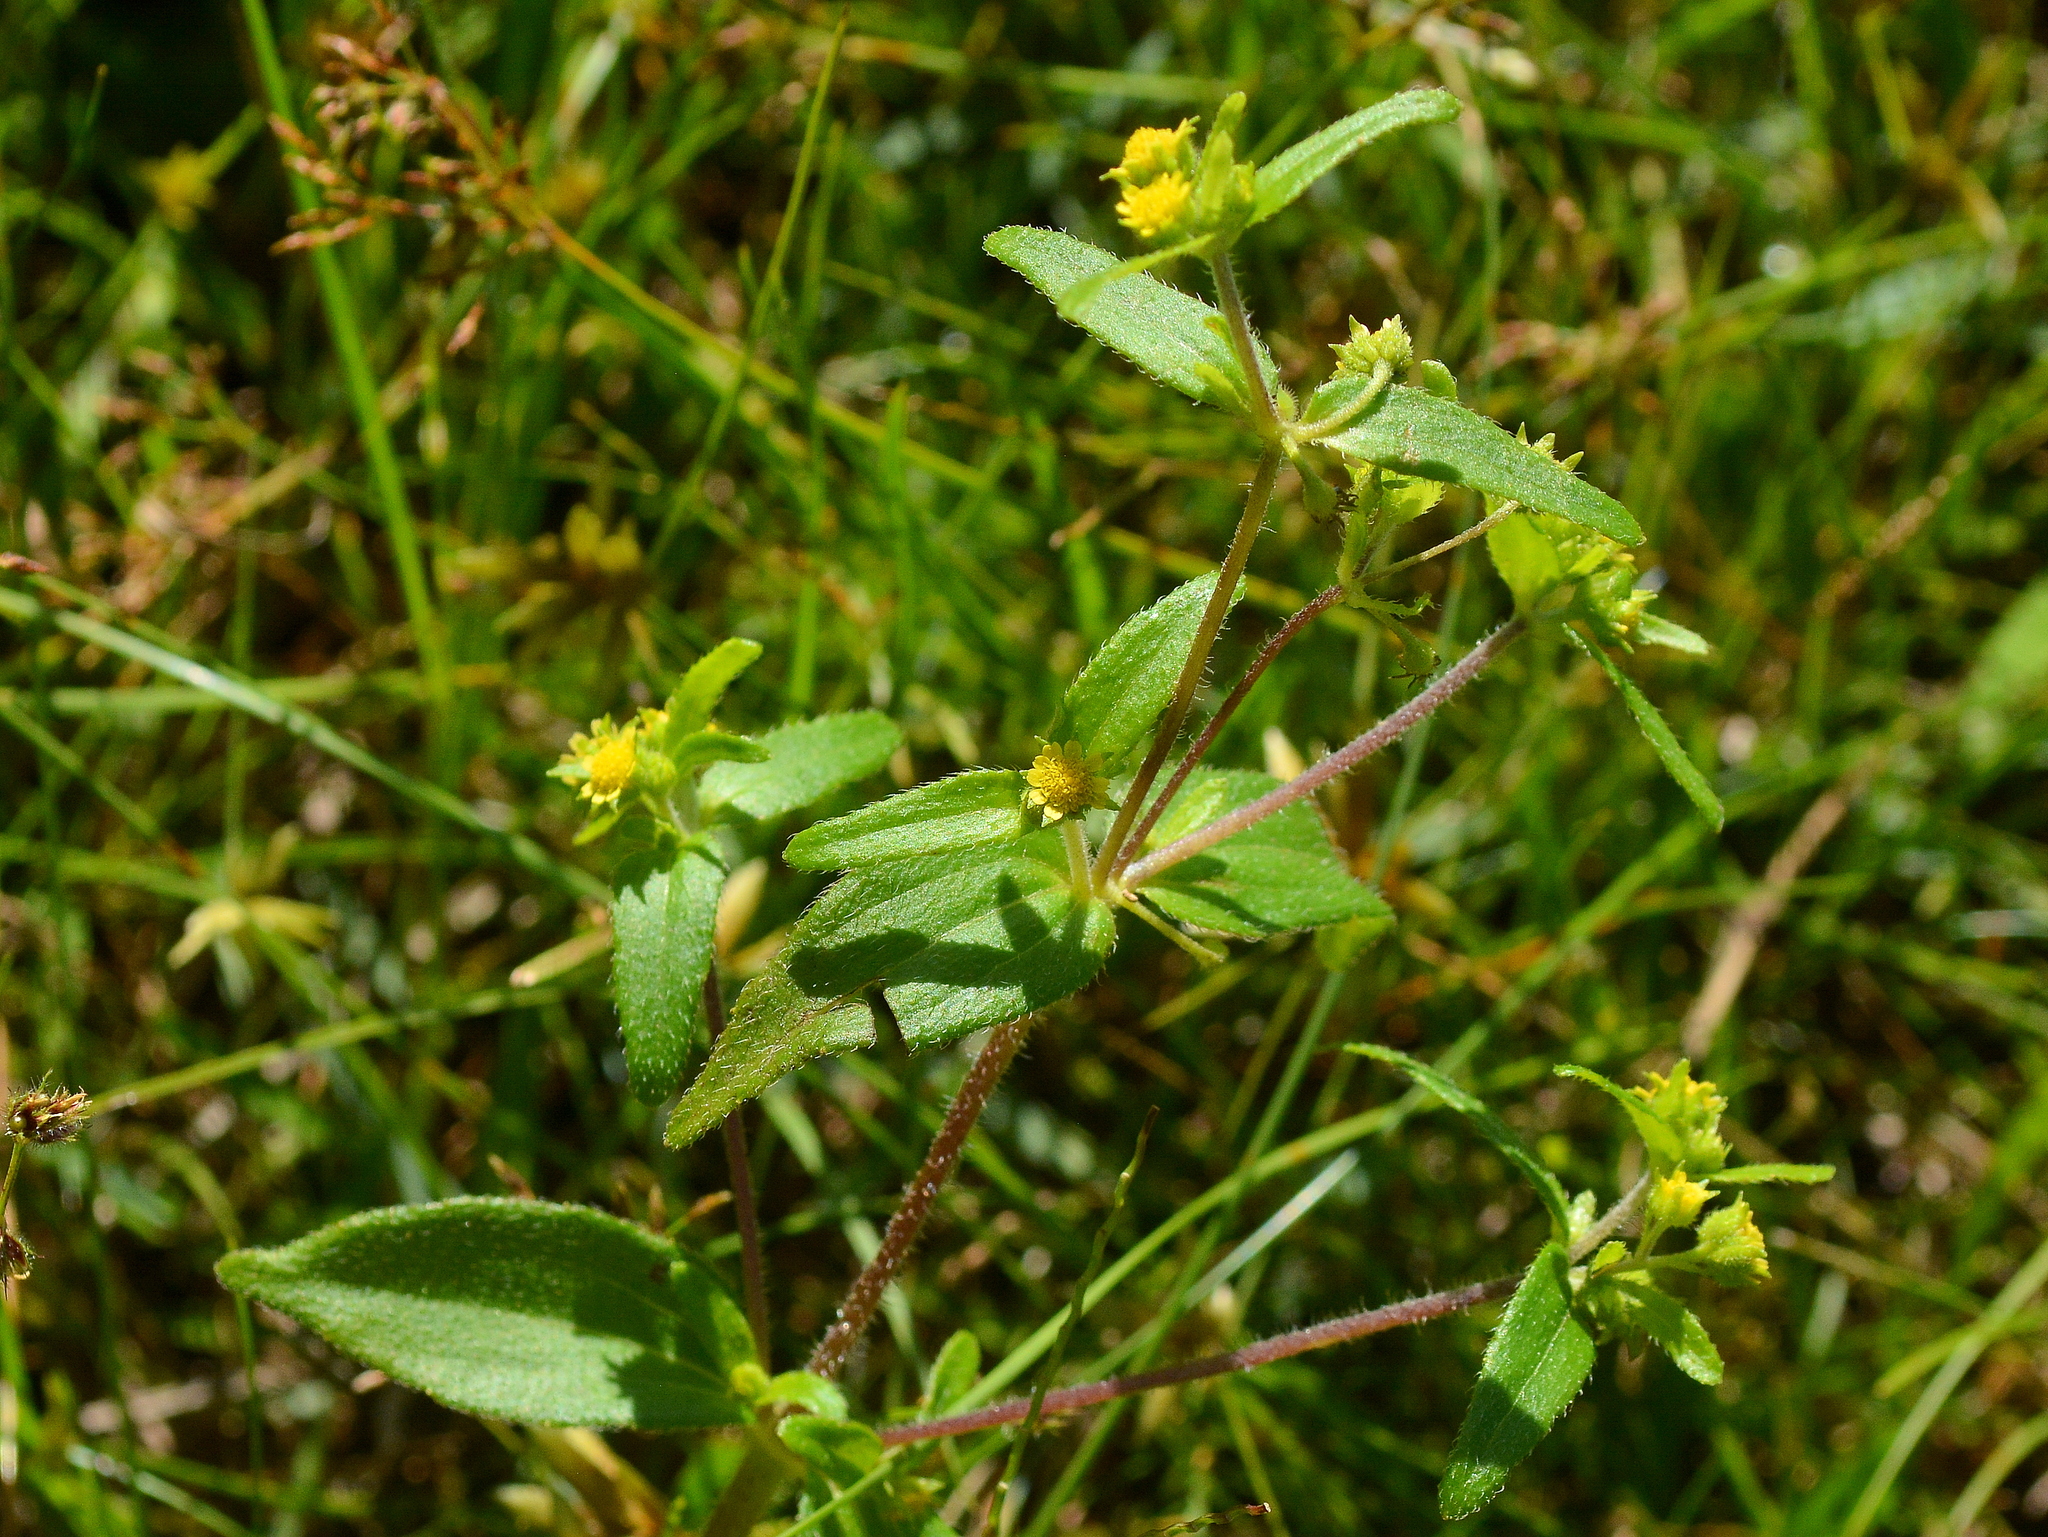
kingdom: Plantae
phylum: Tracheophyta
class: Magnoliopsida
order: Asterales
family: Asteraceae
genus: Jaegeria
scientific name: Jaegeria hirta
